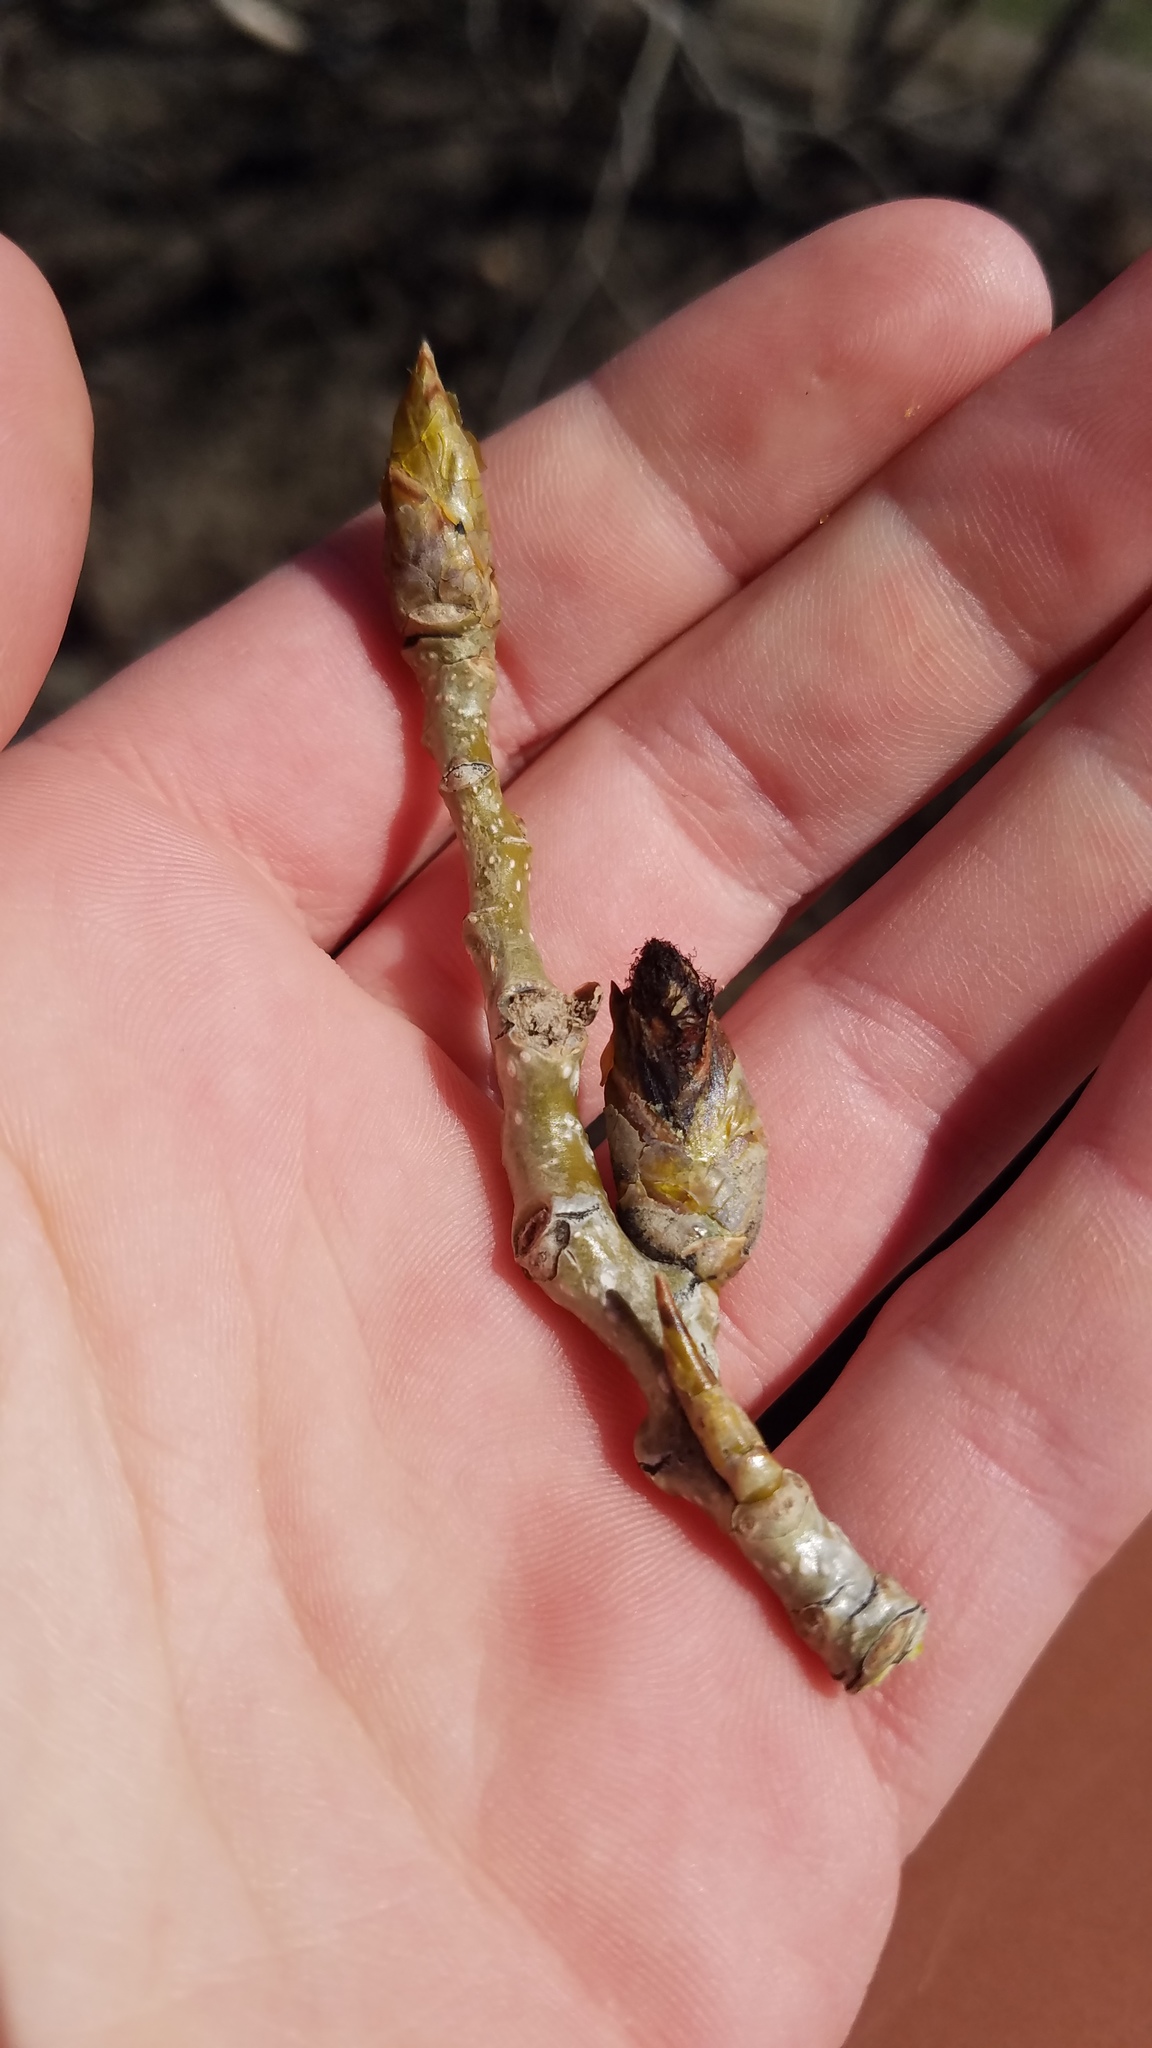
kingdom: Plantae
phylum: Tracheophyta
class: Magnoliopsida
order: Malpighiales
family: Salicaceae
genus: Populus
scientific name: Populus deltoides
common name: Eastern cottonwood
